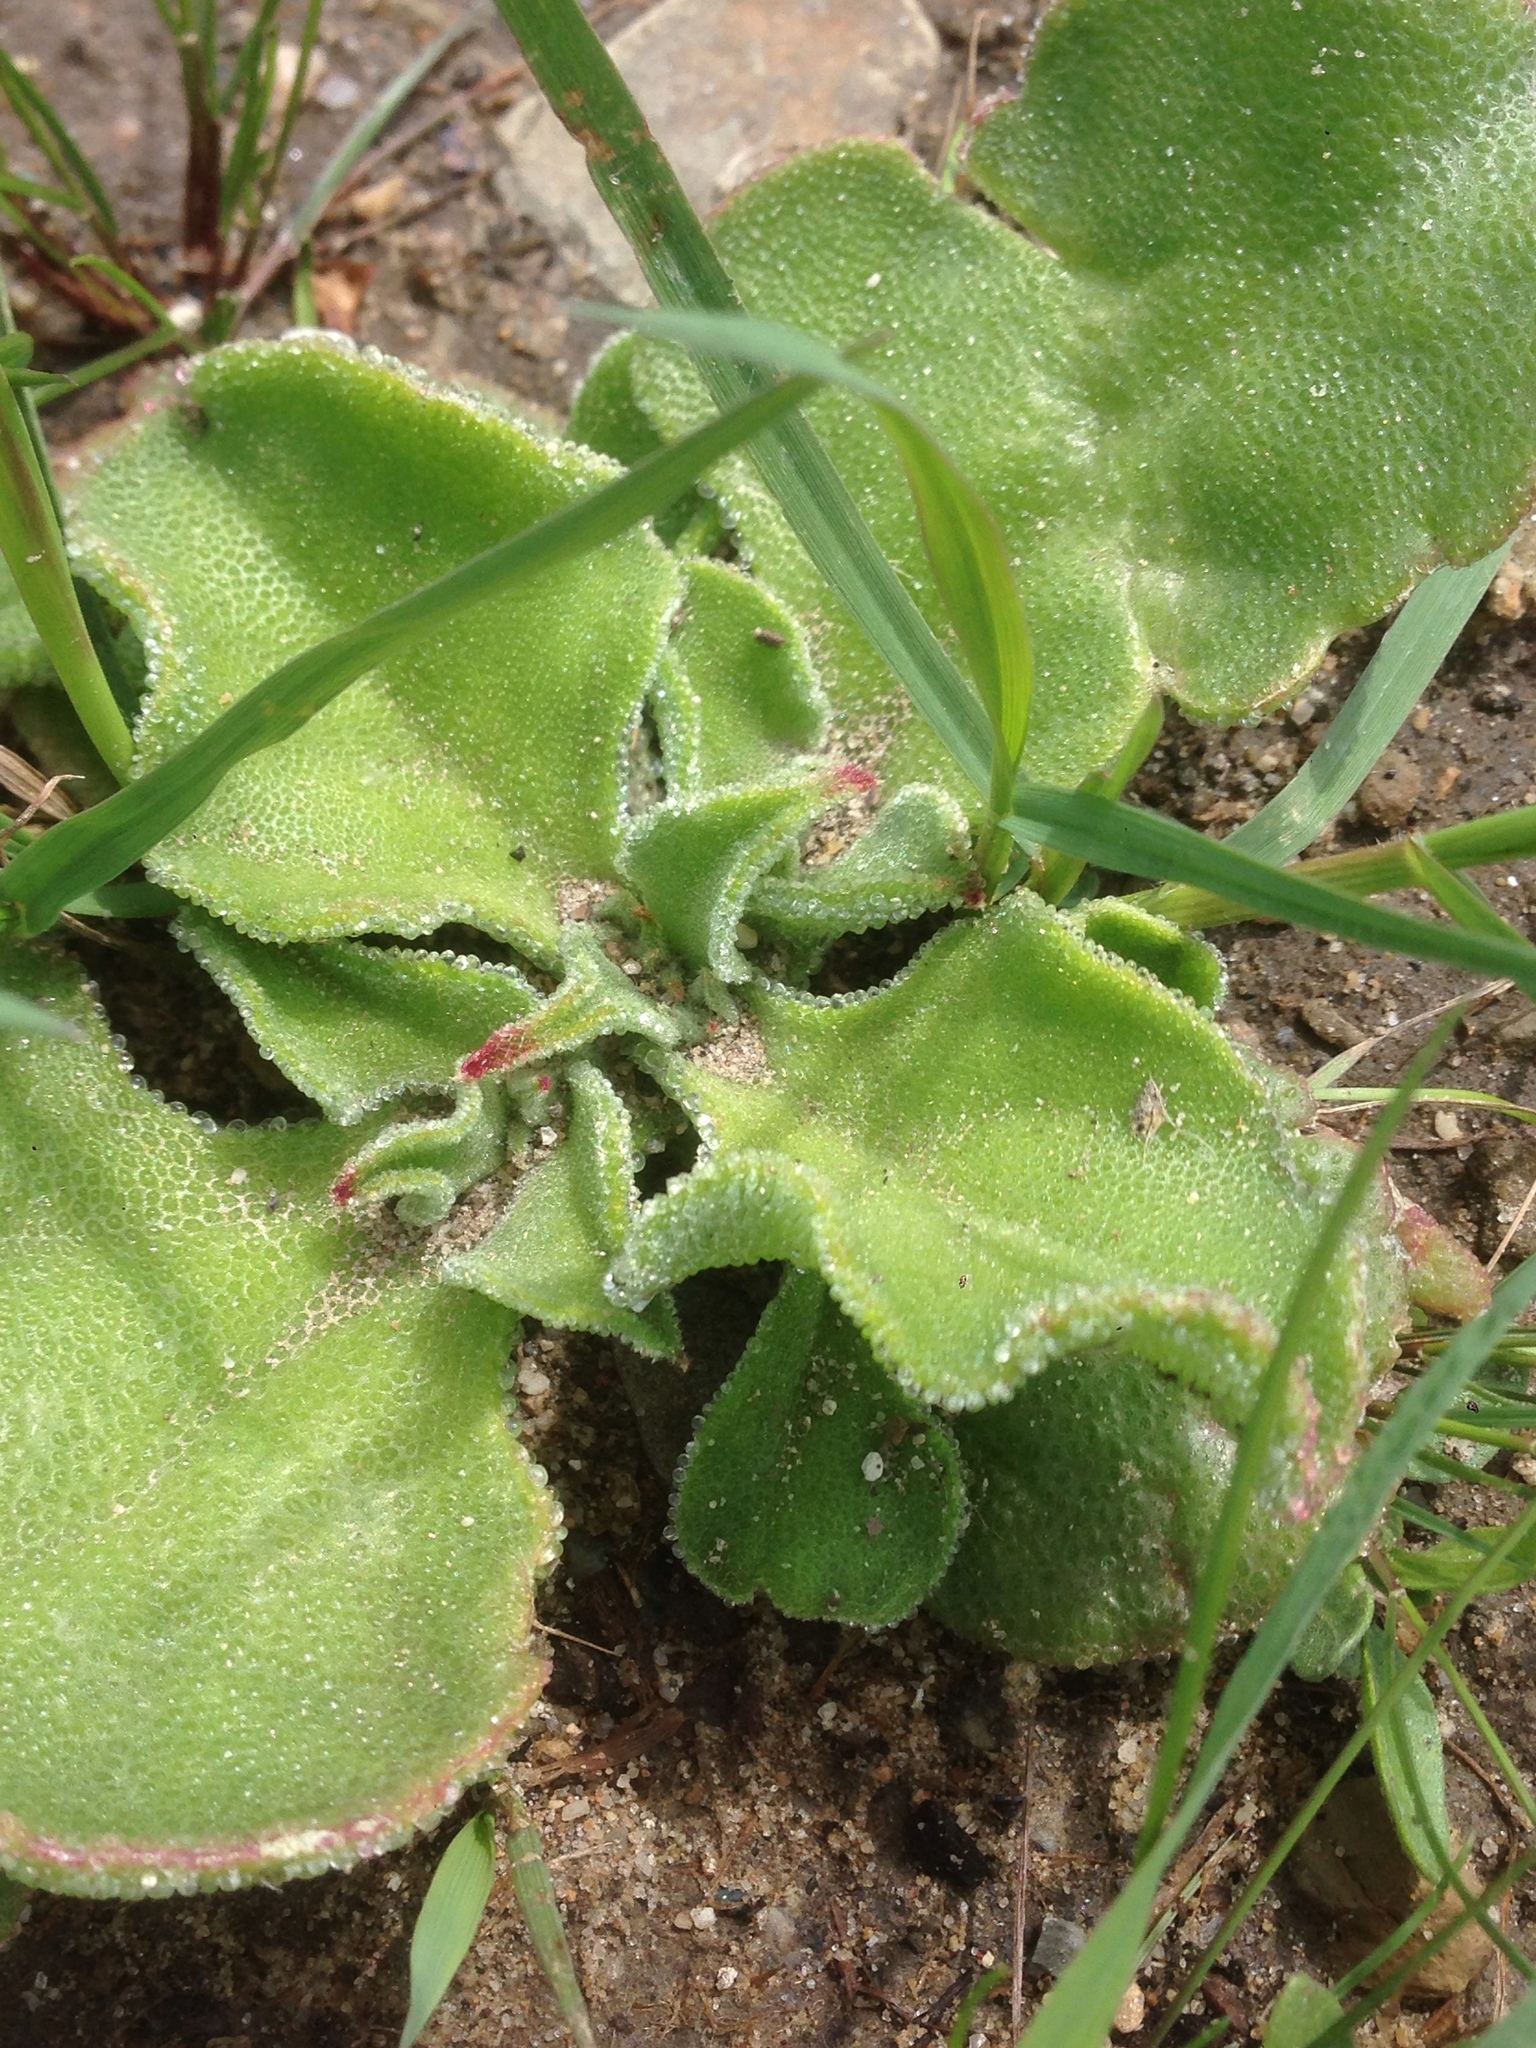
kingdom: Plantae
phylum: Tracheophyta
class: Magnoliopsida
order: Caryophyllales
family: Aizoaceae
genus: Mesembryanthemum
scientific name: Mesembryanthemum crystallinum
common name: Common iceplant
